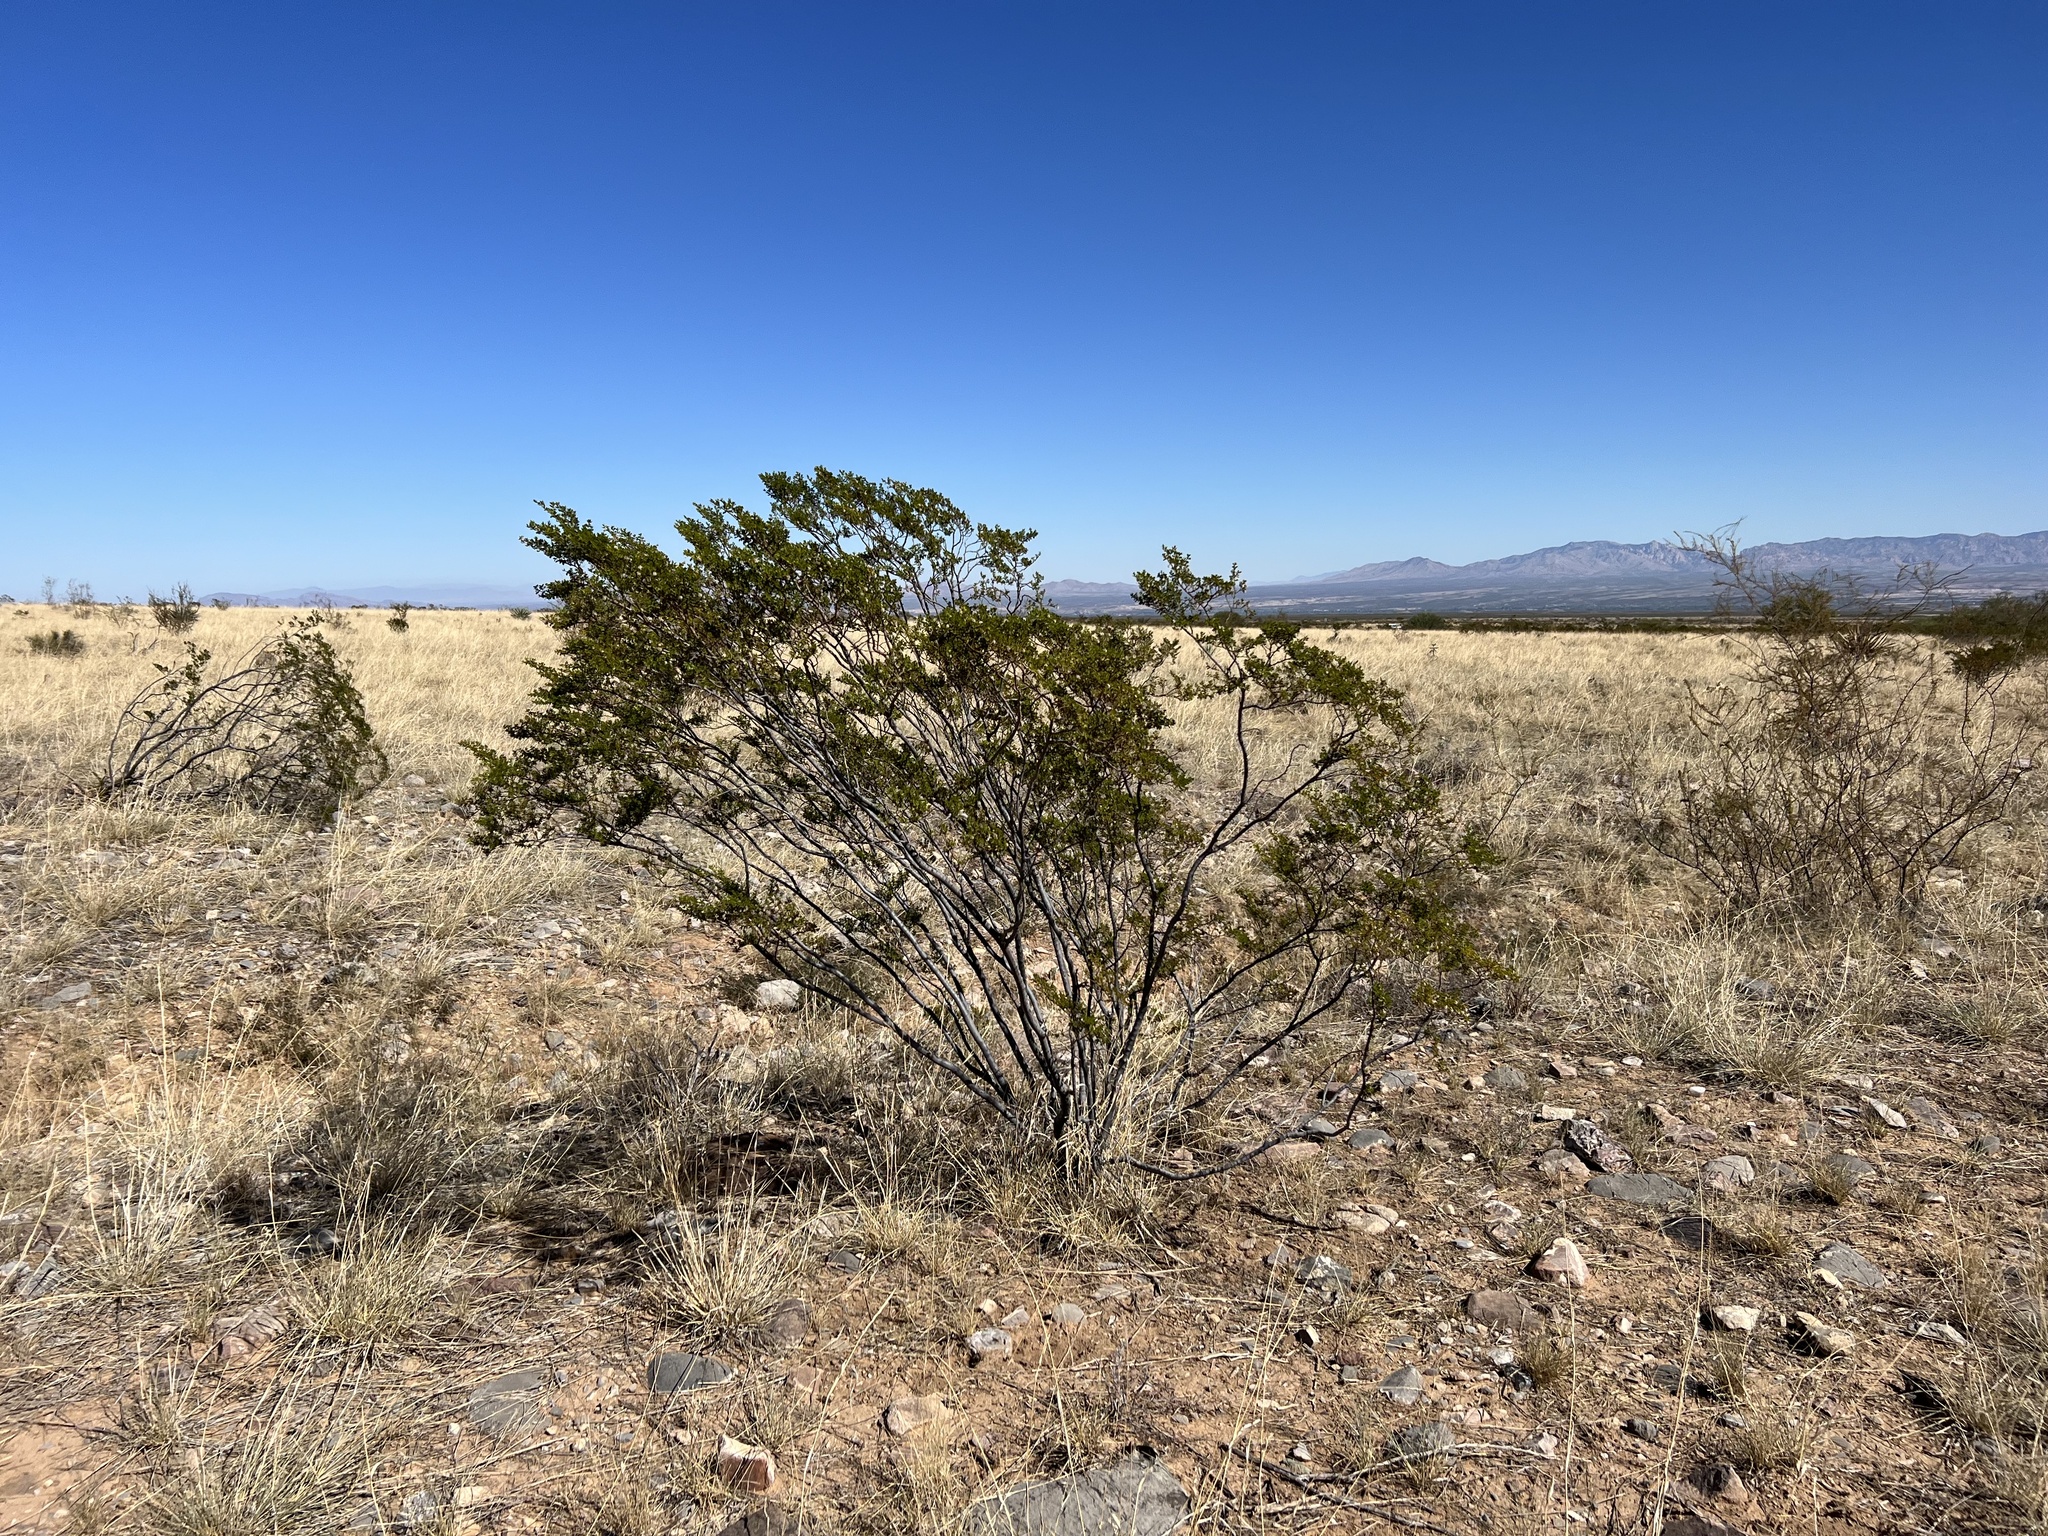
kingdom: Plantae
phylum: Tracheophyta
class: Magnoliopsida
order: Zygophyllales
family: Zygophyllaceae
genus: Larrea
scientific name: Larrea tridentata
